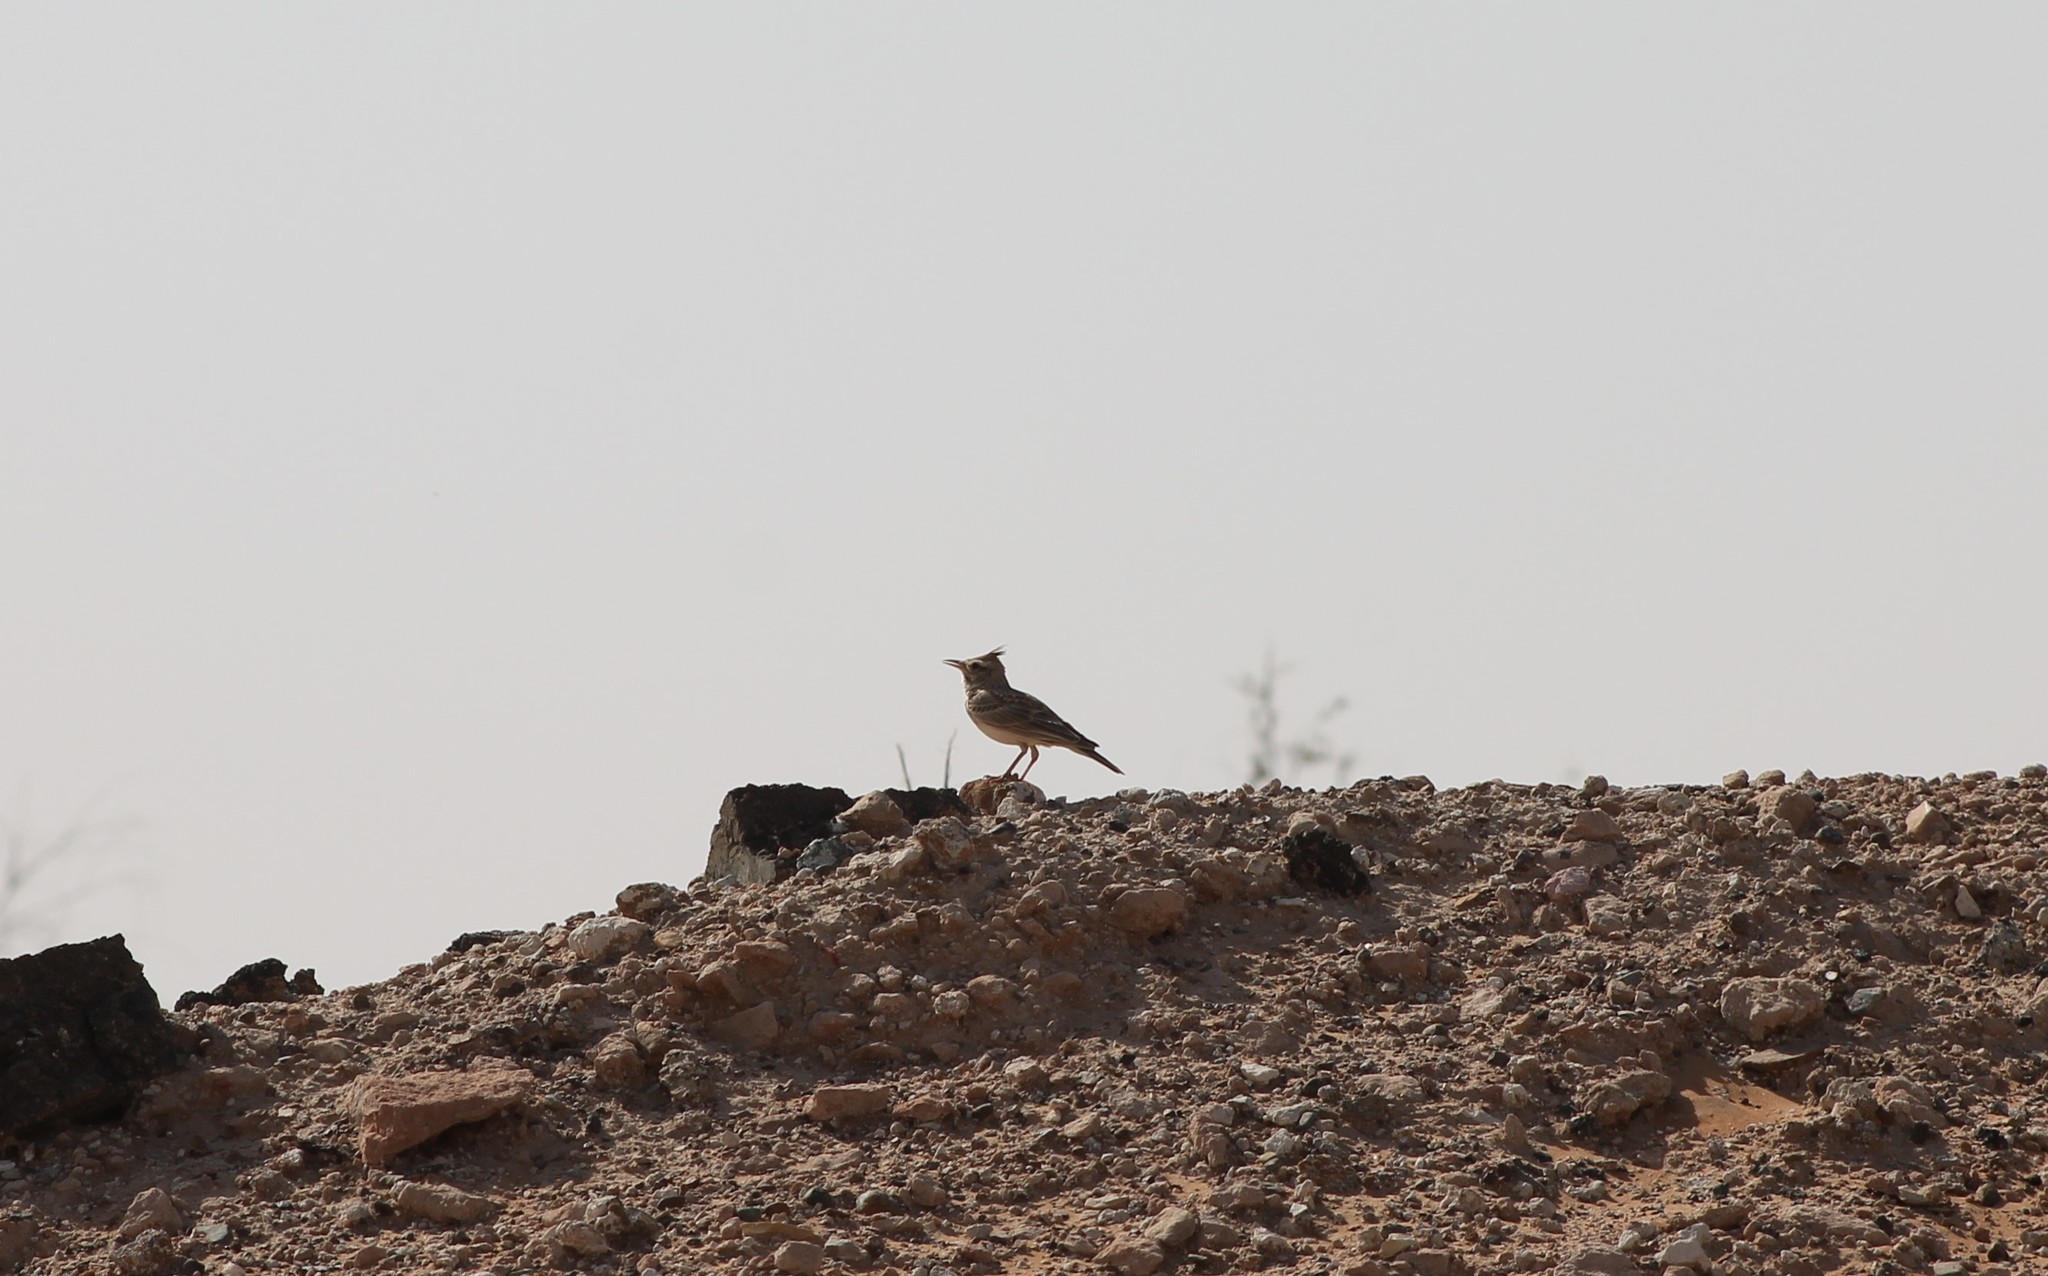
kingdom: Animalia
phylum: Chordata
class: Aves
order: Passeriformes
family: Alaudidae
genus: Galerida
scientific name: Galerida cristata
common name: Crested lark
